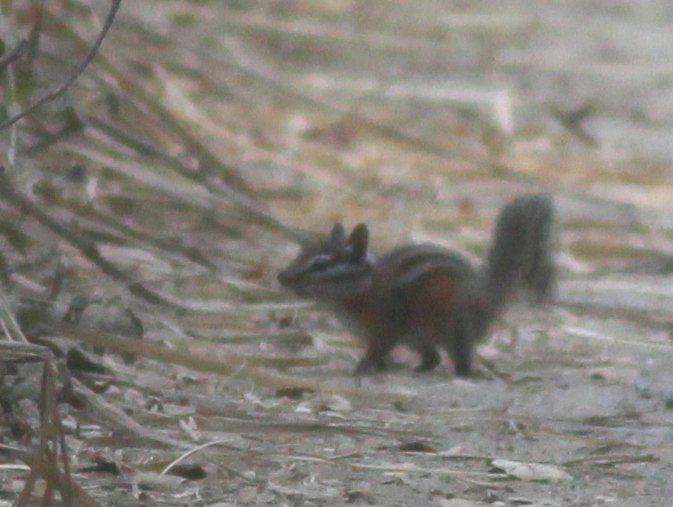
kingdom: Animalia
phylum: Chordata
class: Mammalia
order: Rodentia
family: Sciuridae
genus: Tamias
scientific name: Tamias merriami
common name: Merriam's chipmunk
